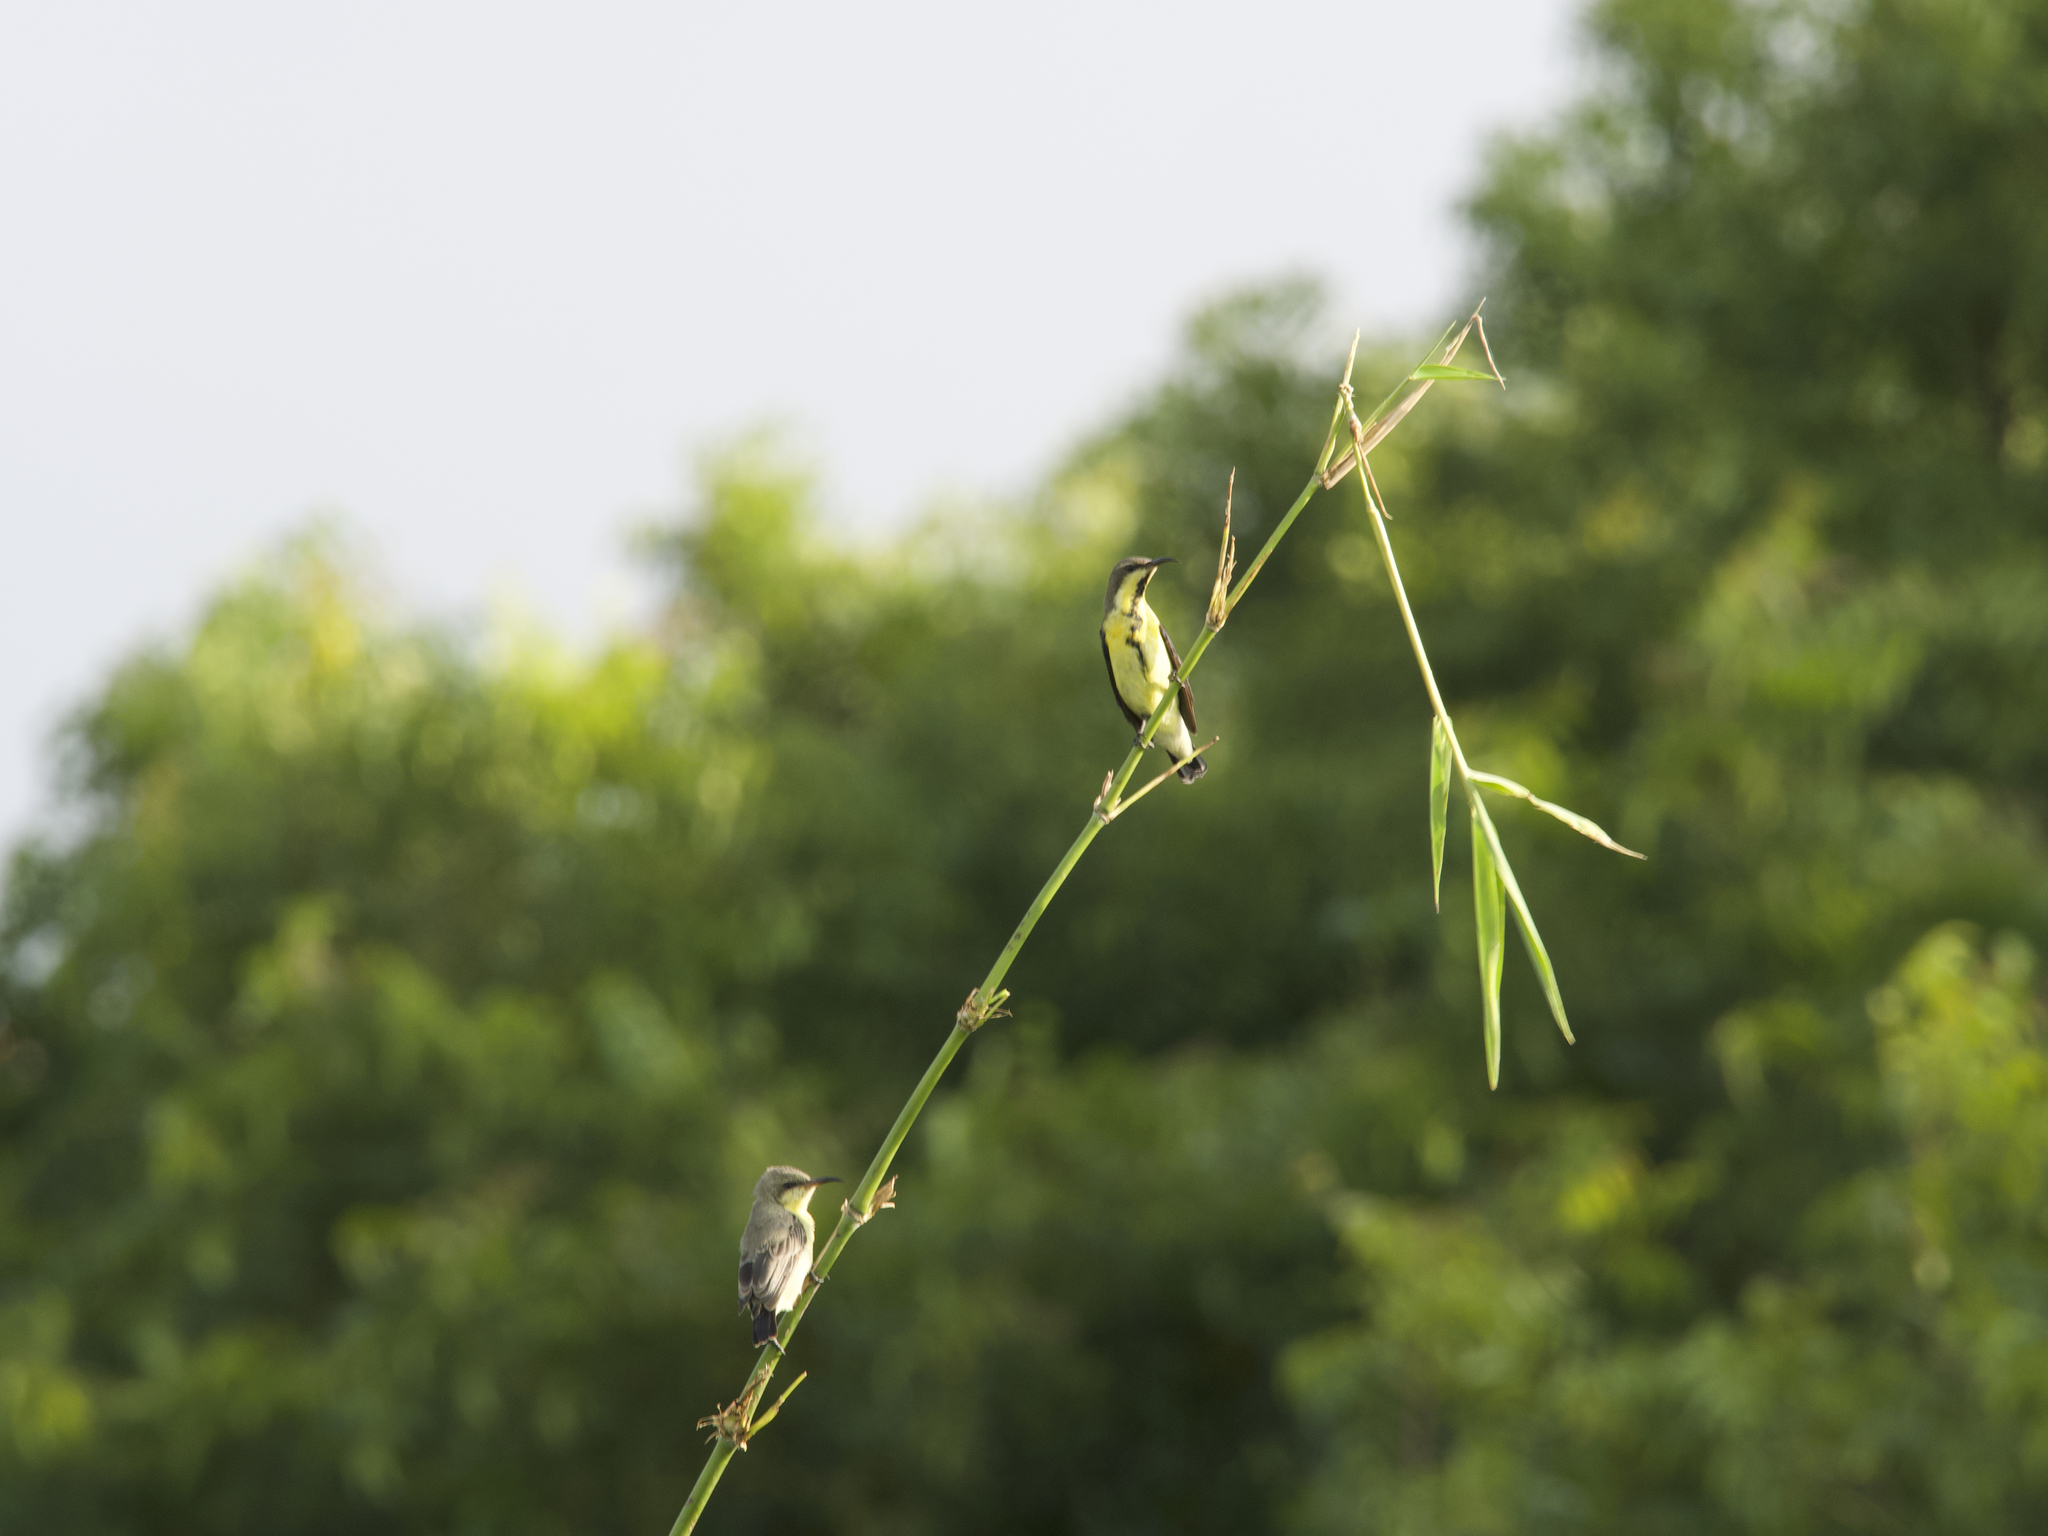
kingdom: Animalia
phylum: Chordata
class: Aves
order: Passeriformes
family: Nectariniidae
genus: Cinnyris
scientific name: Cinnyris asiaticus
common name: Purple sunbird
